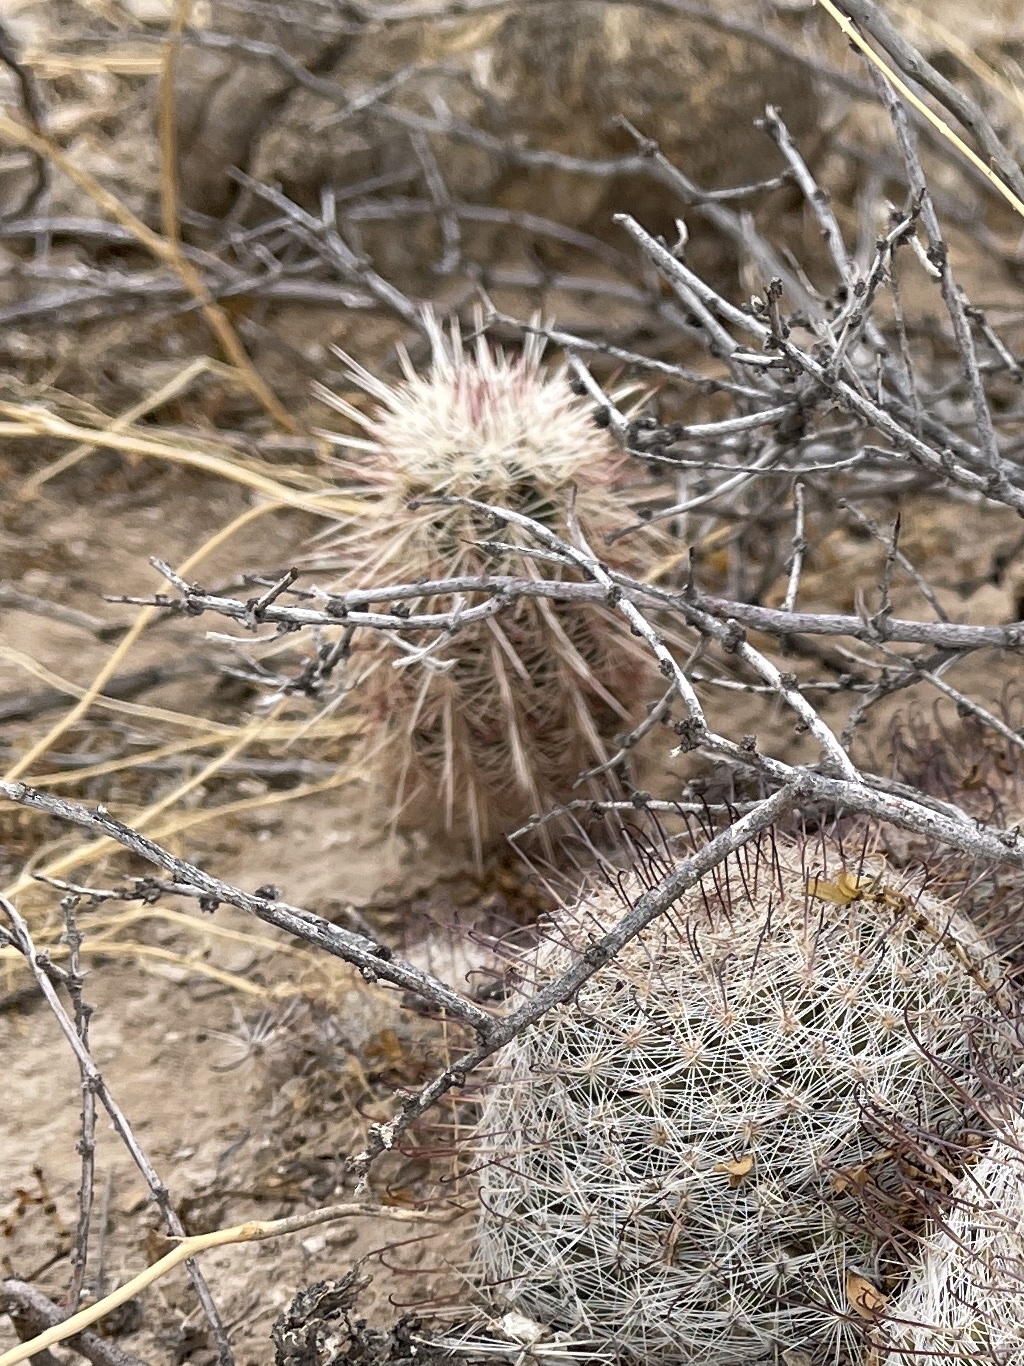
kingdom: Plantae
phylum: Tracheophyta
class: Magnoliopsida
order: Caryophyllales
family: Cactaceae
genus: Echinocereus
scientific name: Echinocereus viridiflorus
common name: Nylon hedgehog cactus
